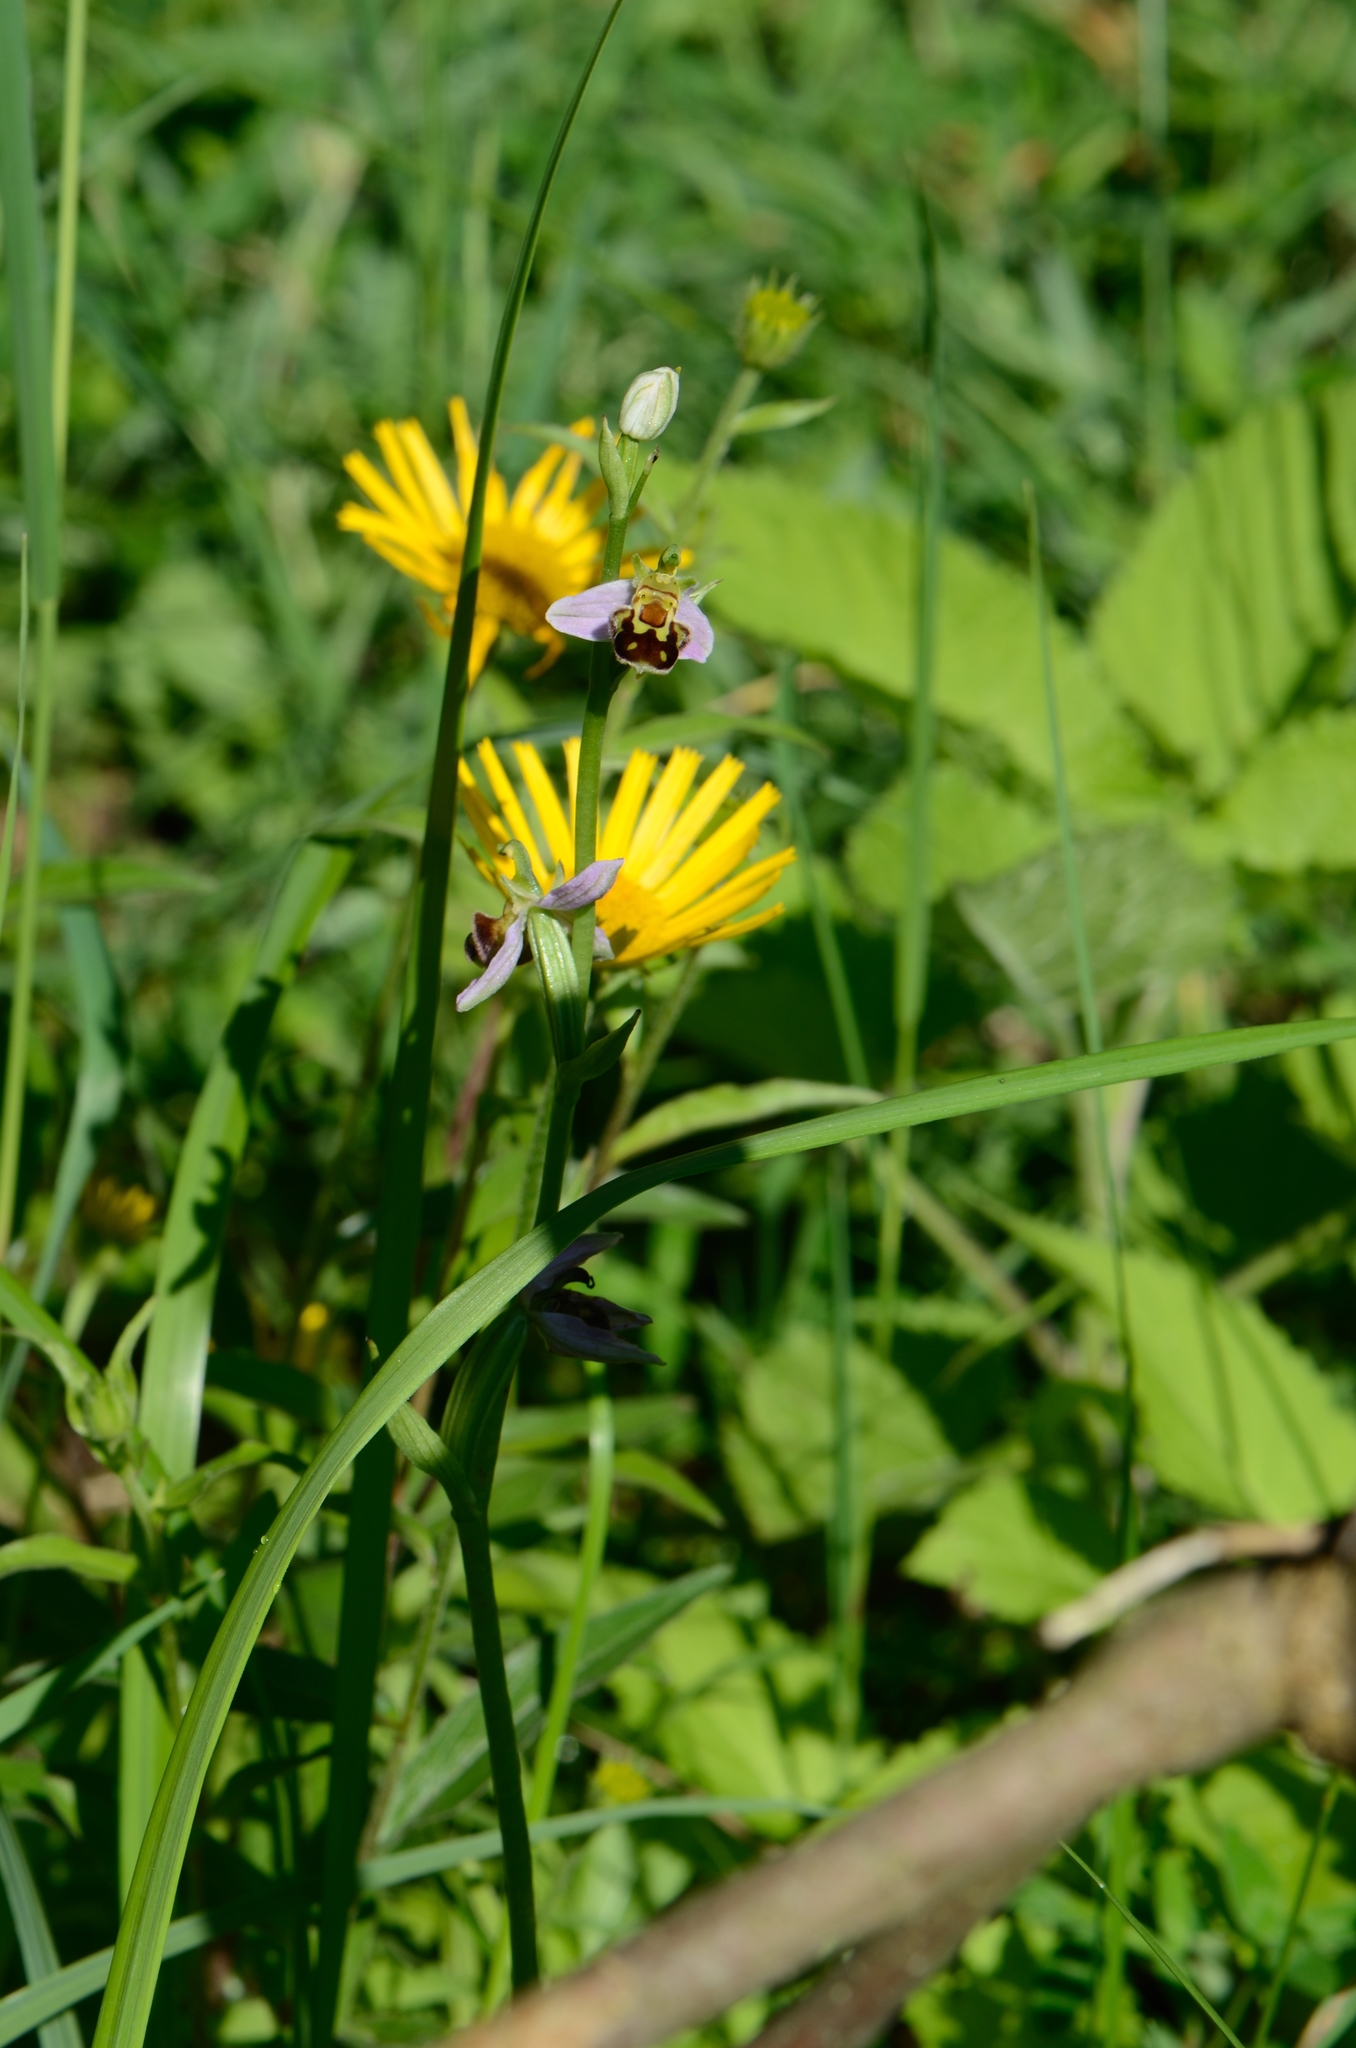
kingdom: Plantae
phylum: Tracheophyta
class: Liliopsida
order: Asparagales
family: Orchidaceae
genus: Ophrys
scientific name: Ophrys apifera
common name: Bee orchid
